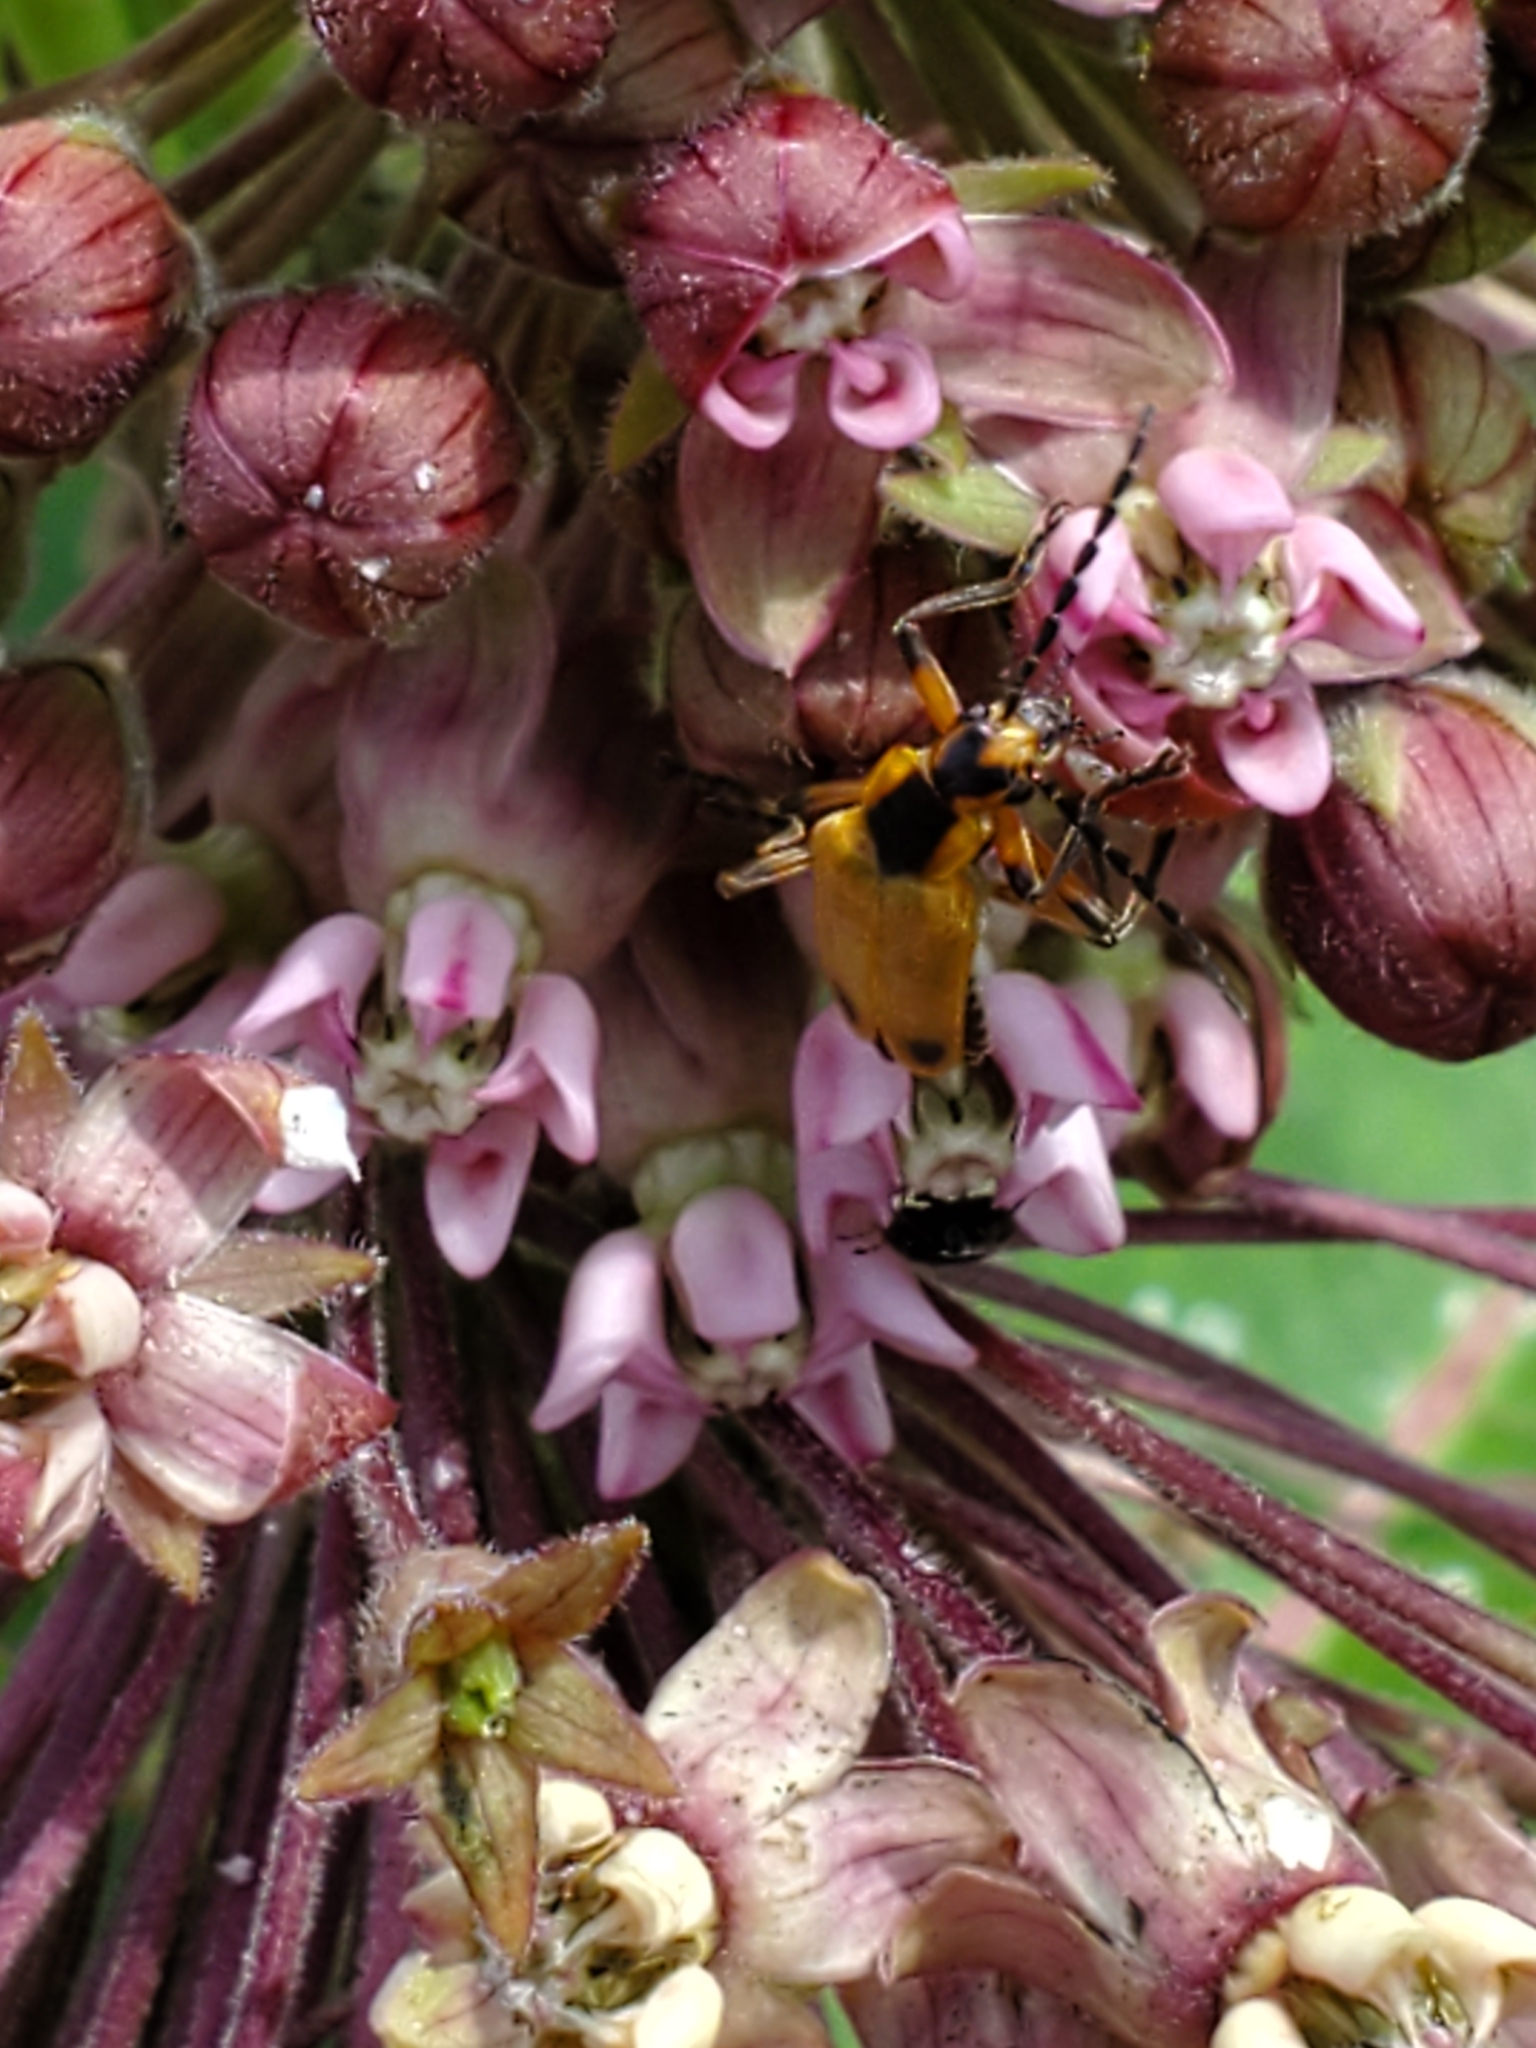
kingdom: Animalia
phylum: Arthropoda
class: Insecta
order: Coleoptera
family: Cantharidae
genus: Chauliognathus
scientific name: Chauliognathus marginatus
